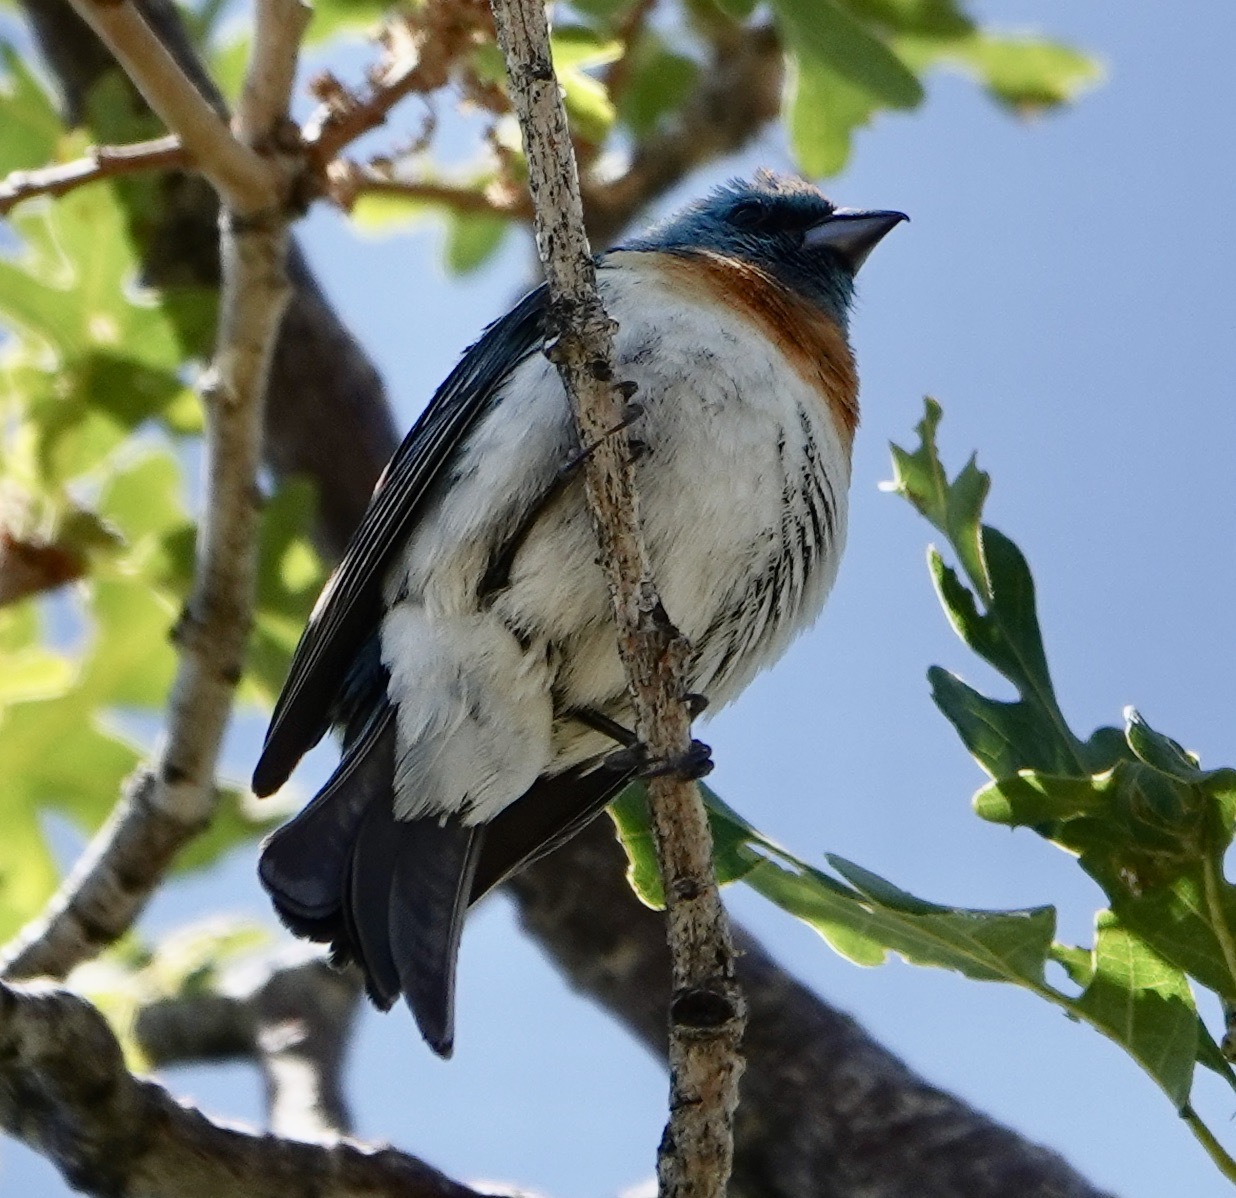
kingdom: Animalia
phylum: Chordata
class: Aves
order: Passeriformes
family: Cardinalidae
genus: Passerina
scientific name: Passerina amoena
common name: Lazuli bunting
